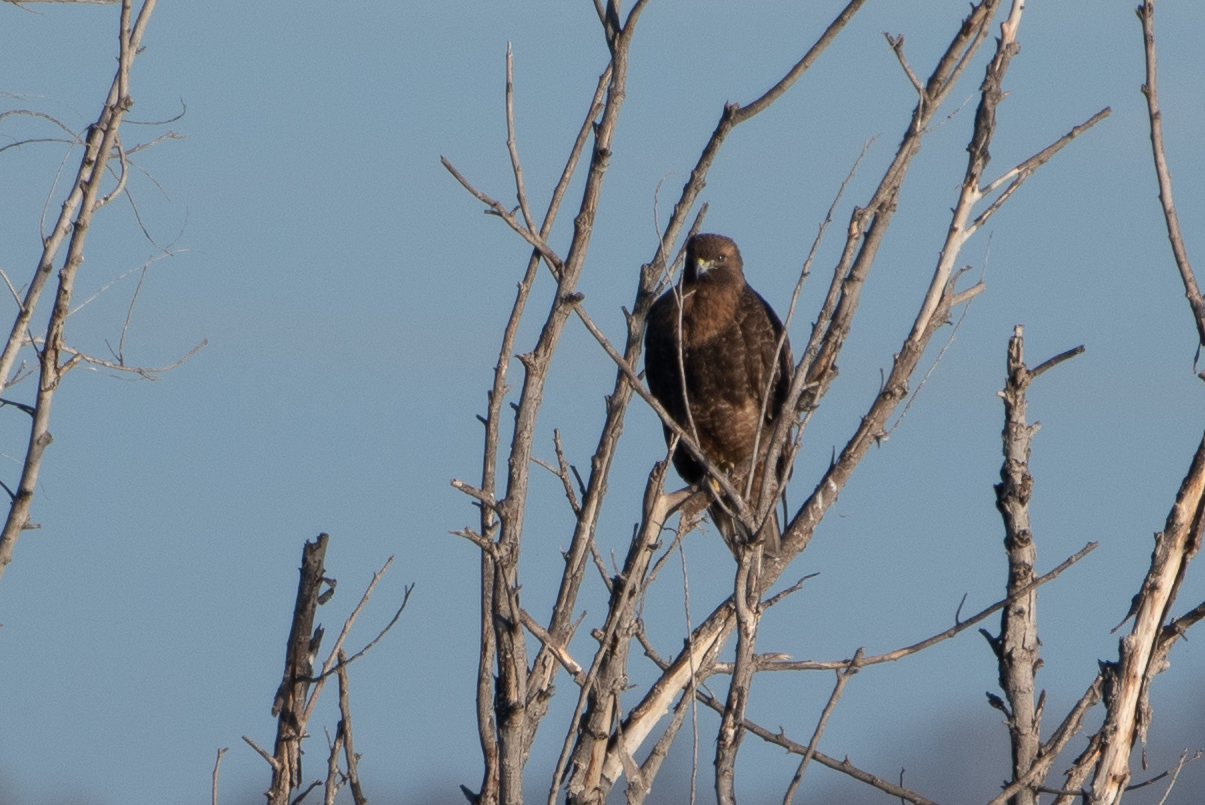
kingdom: Animalia
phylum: Chordata
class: Aves
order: Accipitriformes
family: Accipitridae
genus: Buteo
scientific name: Buteo jamaicensis
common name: Red-tailed hawk
